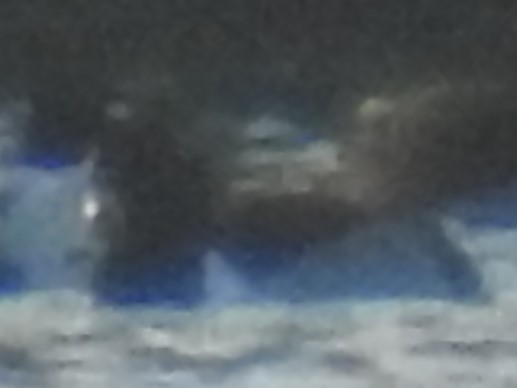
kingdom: Animalia
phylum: Chordata
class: Aves
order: Anseriformes
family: Anatidae
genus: Aythya
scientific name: Aythya collaris
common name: Ring-necked duck
